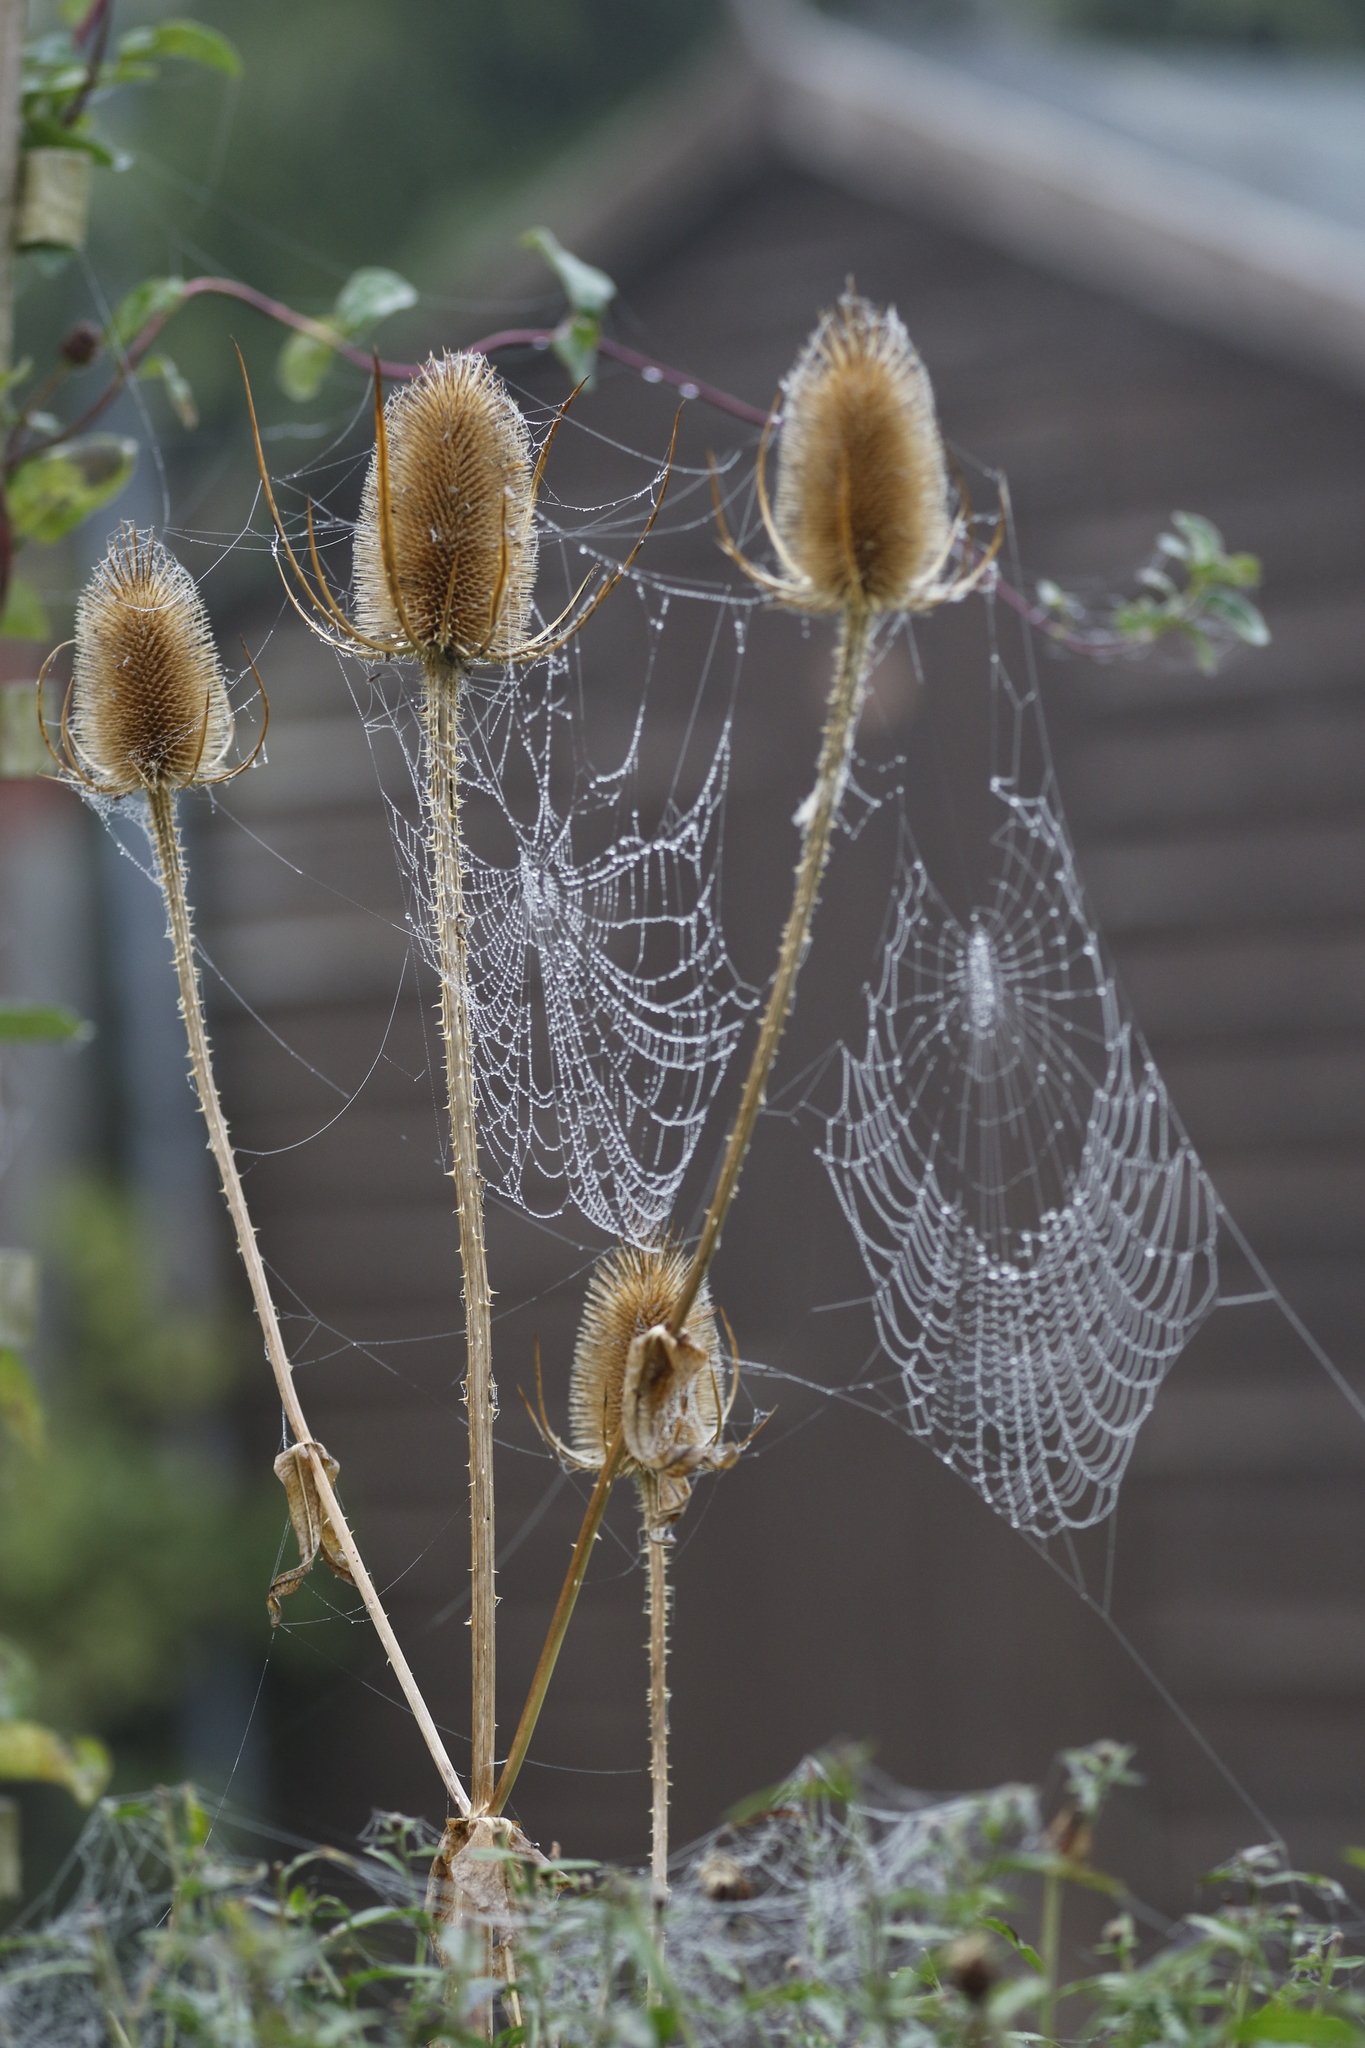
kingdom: Plantae
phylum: Tracheophyta
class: Magnoliopsida
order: Dipsacales
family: Caprifoliaceae
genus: Dipsacus
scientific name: Dipsacus fullonum
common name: Teasel
